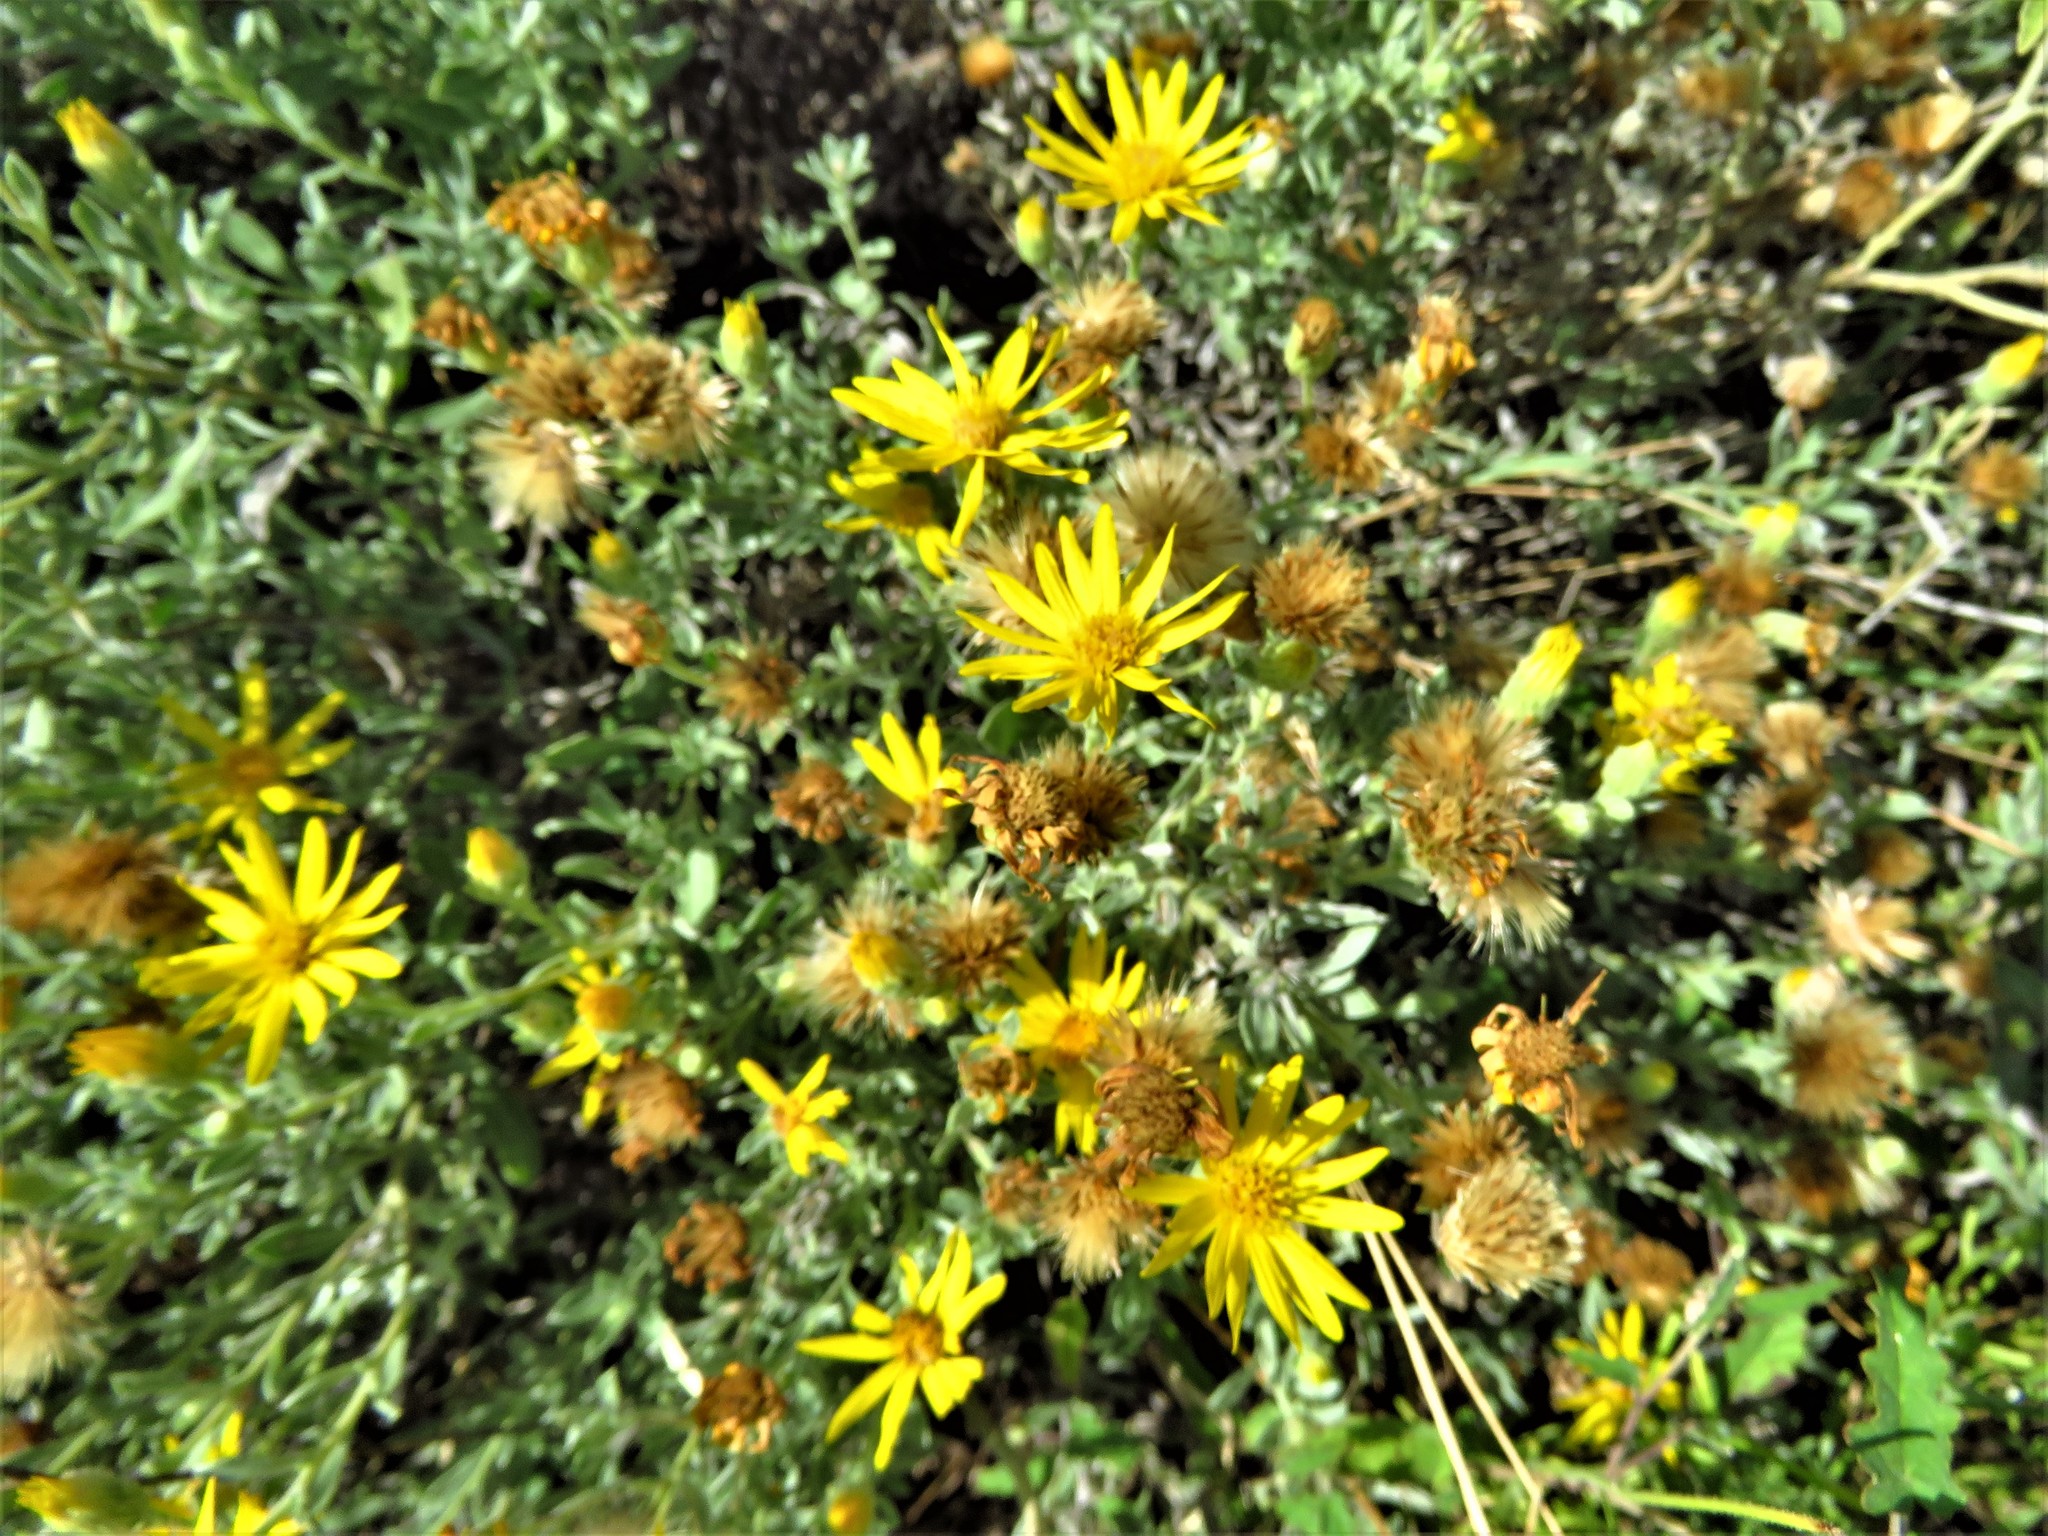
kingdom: Plantae
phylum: Tracheophyta
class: Magnoliopsida
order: Asterales
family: Asteraceae
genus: Heterotheca
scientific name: Heterotheca canescens
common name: Hoary golden-aster
